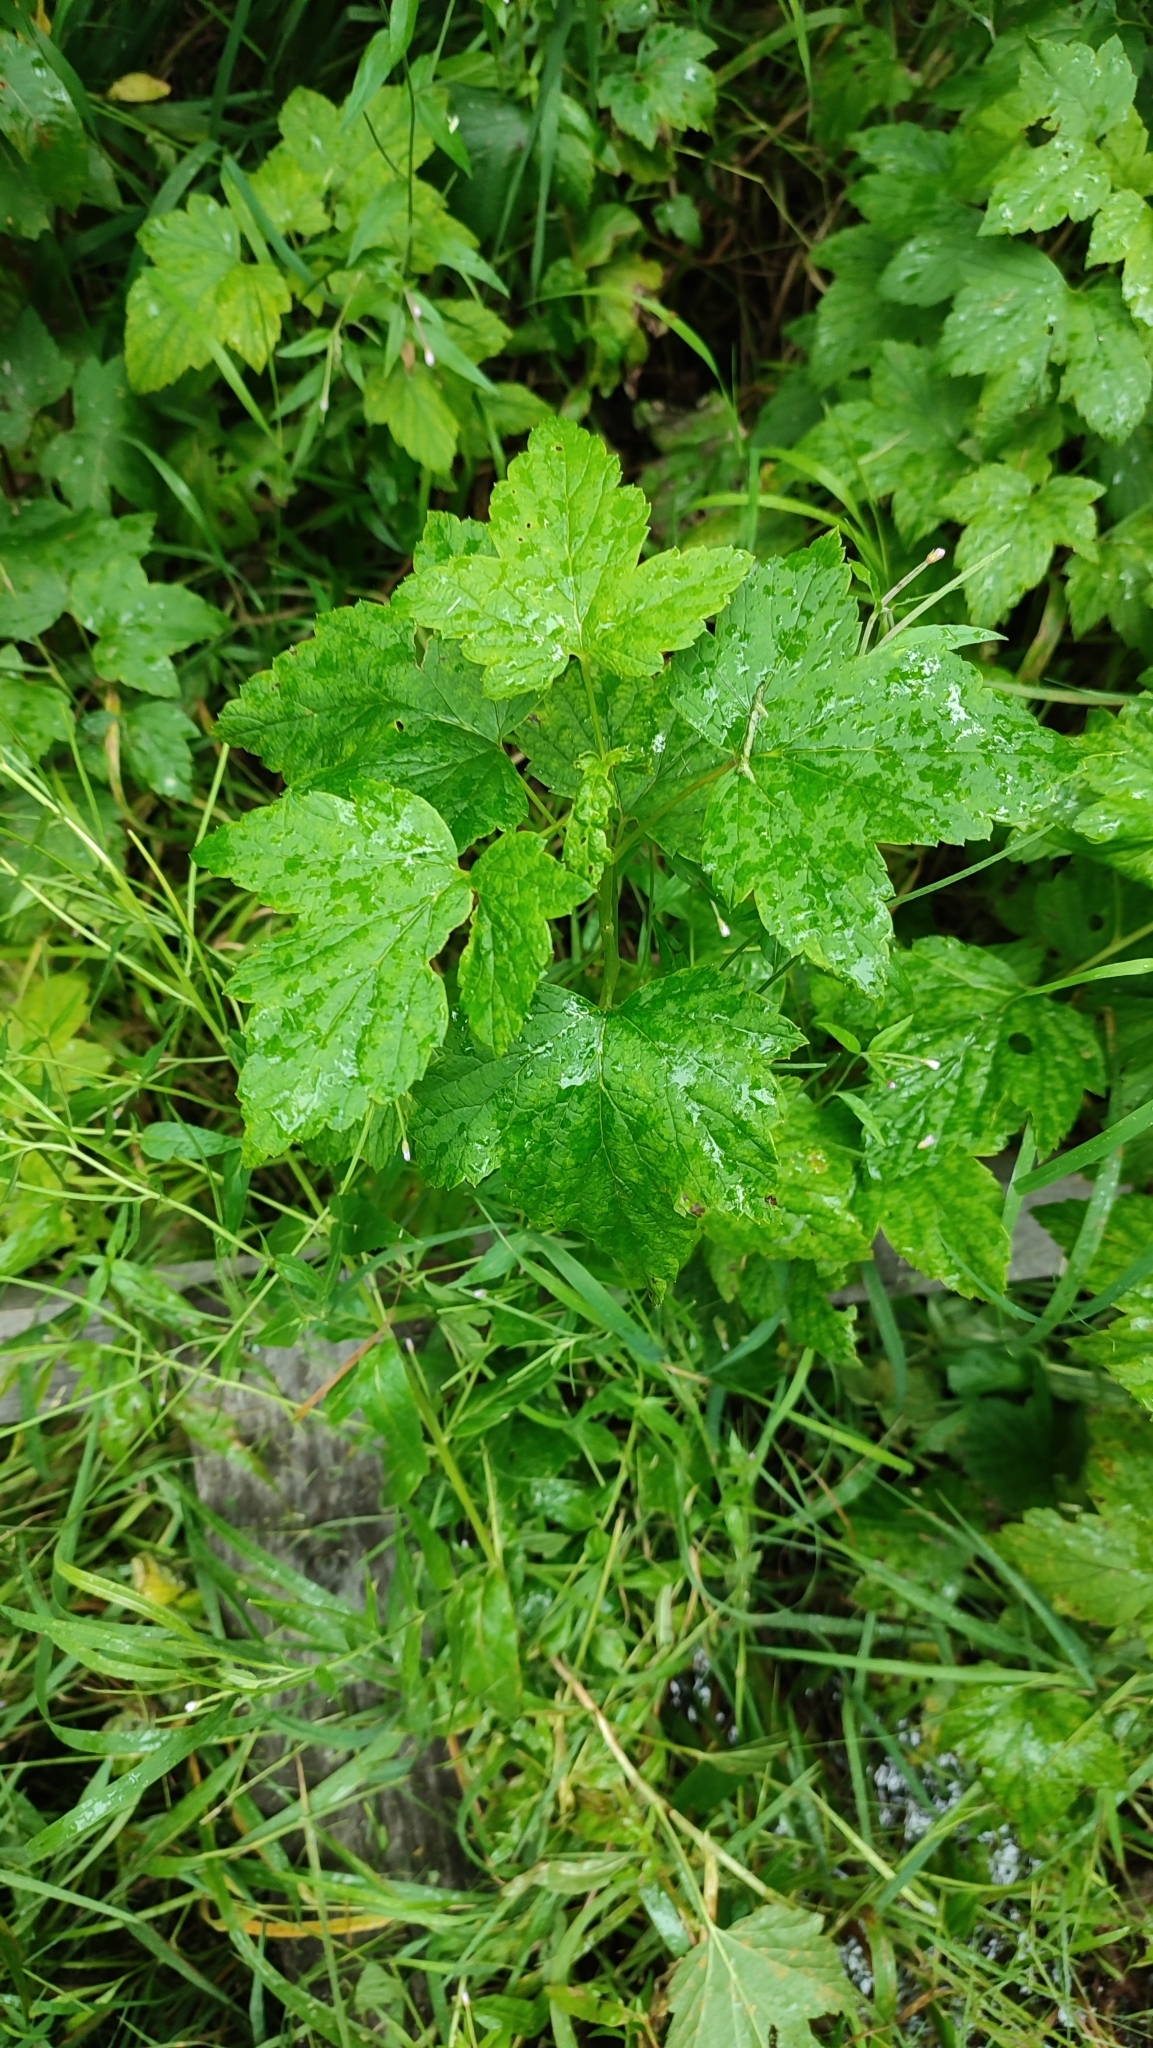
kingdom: Plantae
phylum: Tracheophyta
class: Magnoliopsida
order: Saxifragales
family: Grossulariaceae
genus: Ribes
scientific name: Ribes nigrum
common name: Black currant
